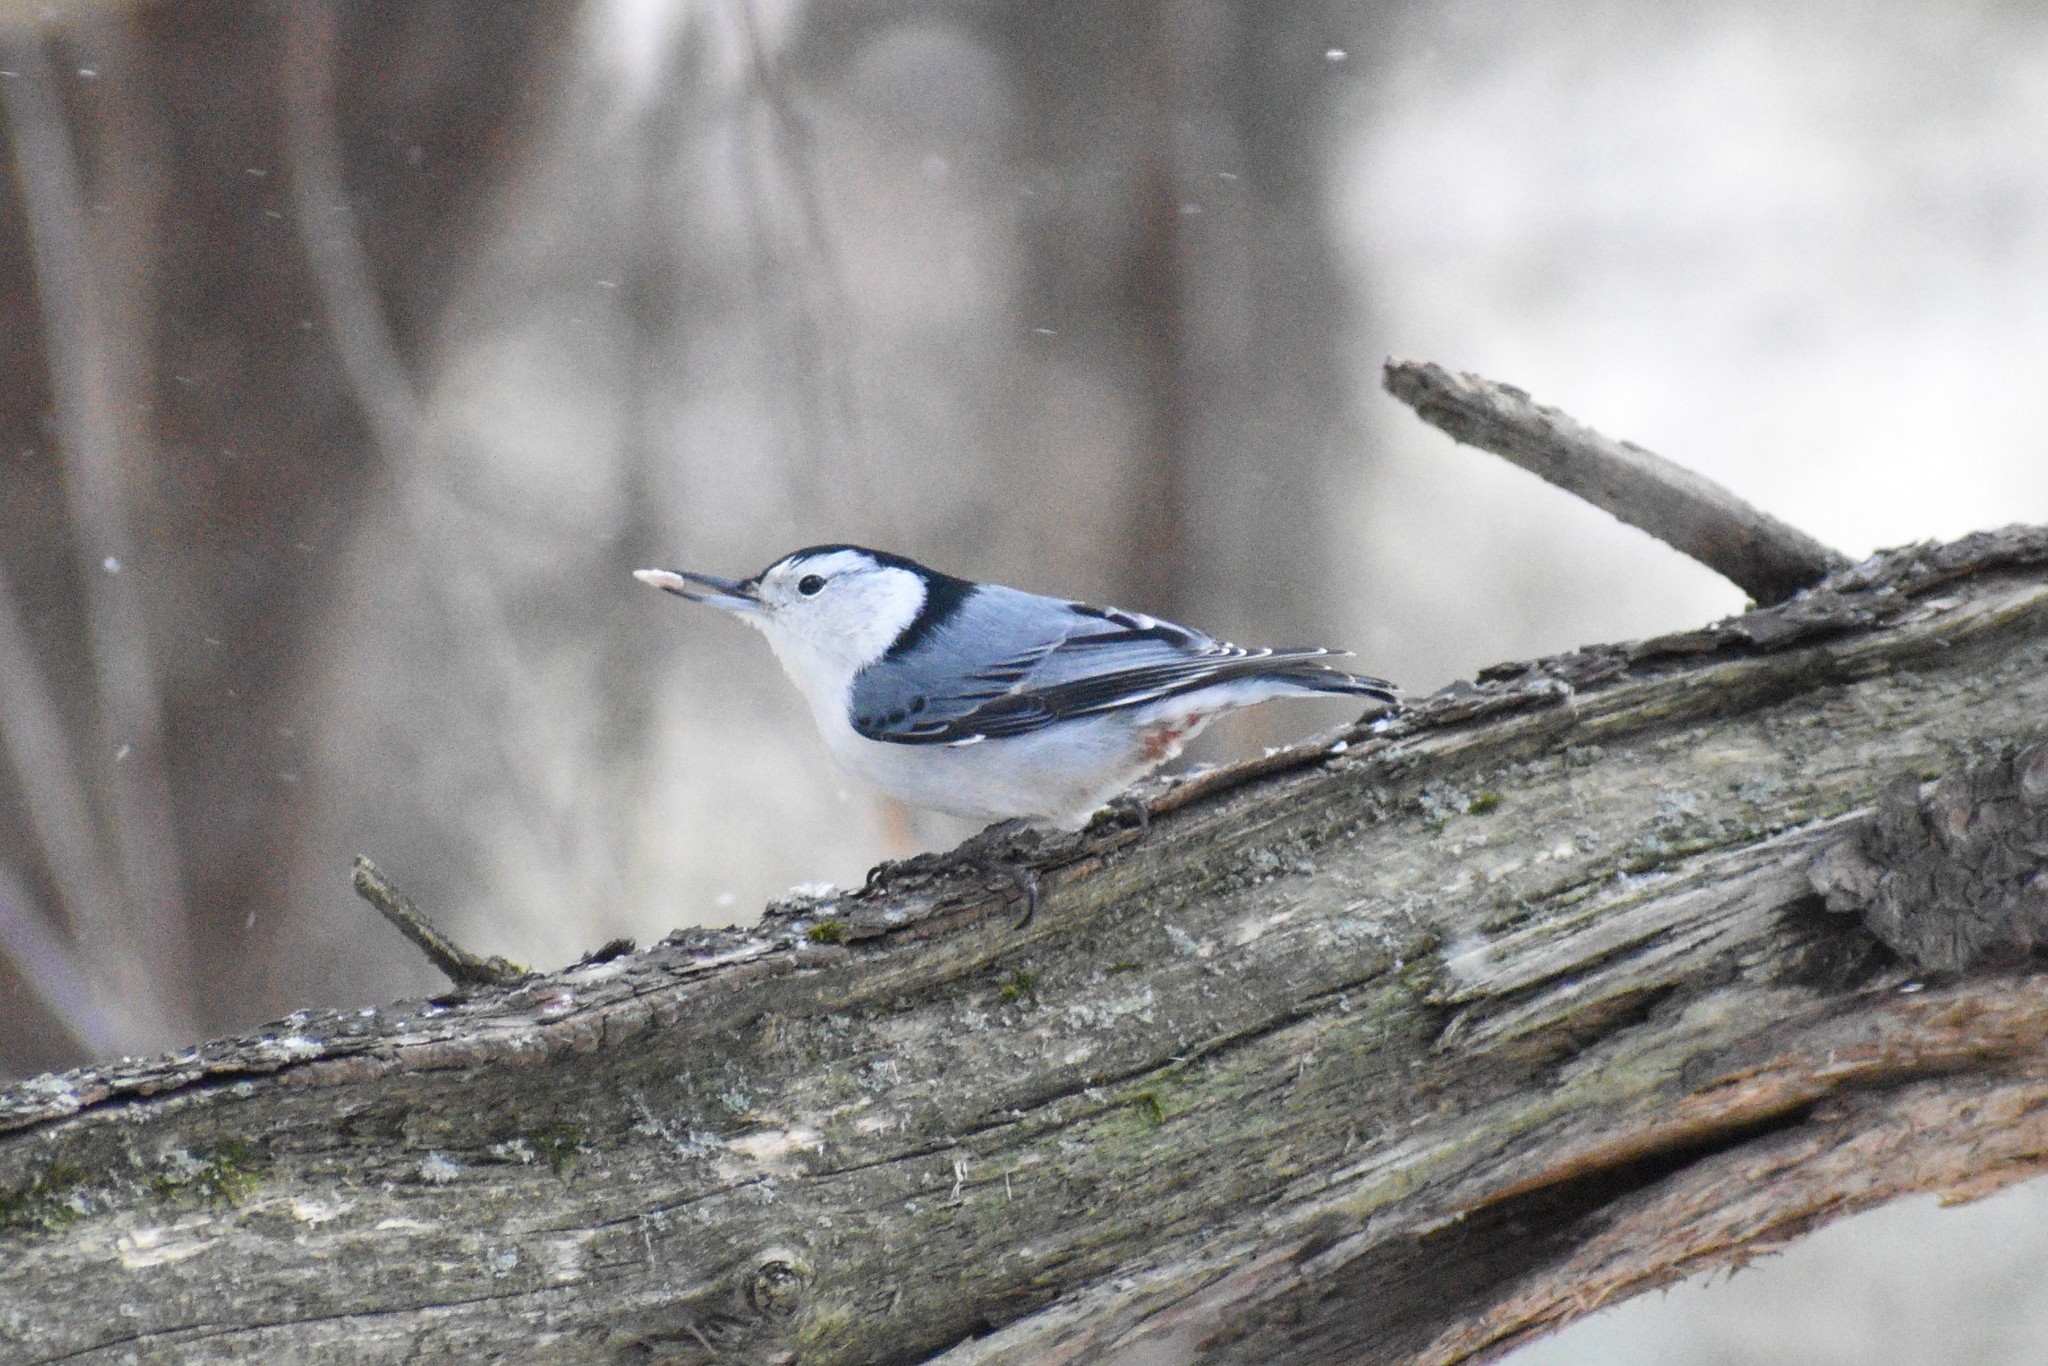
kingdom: Animalia
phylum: Chordata
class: Aves
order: Passeriformes
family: Sittidae
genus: Sitta
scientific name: Sitta carolinensis
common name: White-breasted nuthatch
